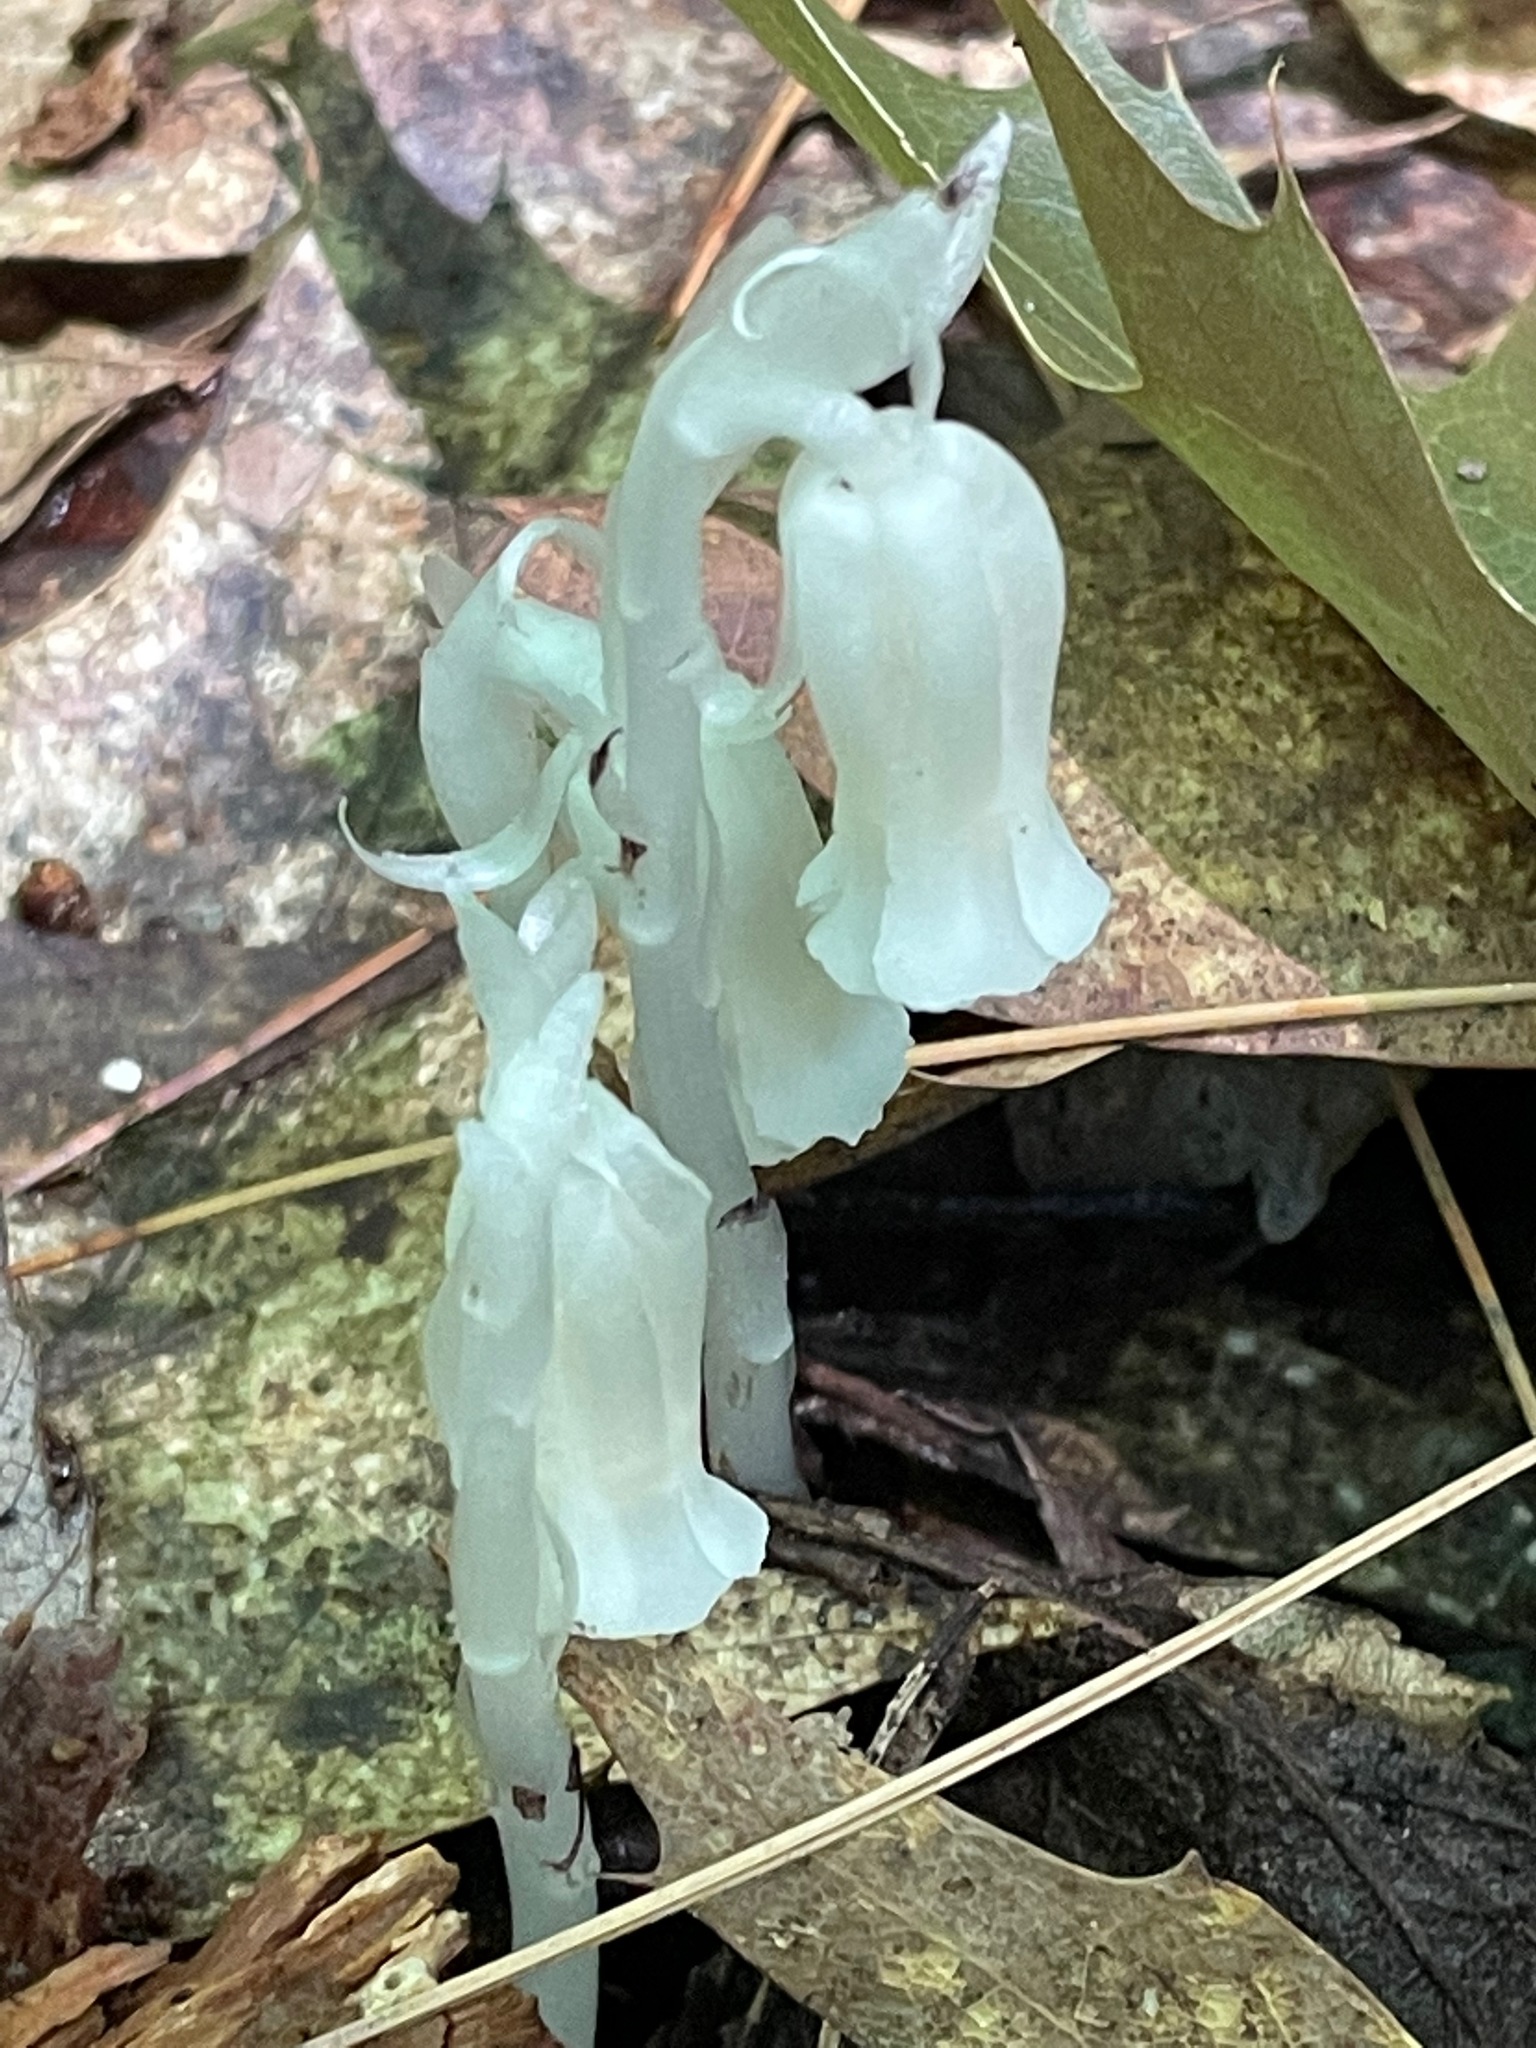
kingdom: Plantae
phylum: Tracheophyta
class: Magnoliopsida
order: Ericales
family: Ericaceae
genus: Monotropa
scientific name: Monotropa uniflora
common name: Convulsion root
